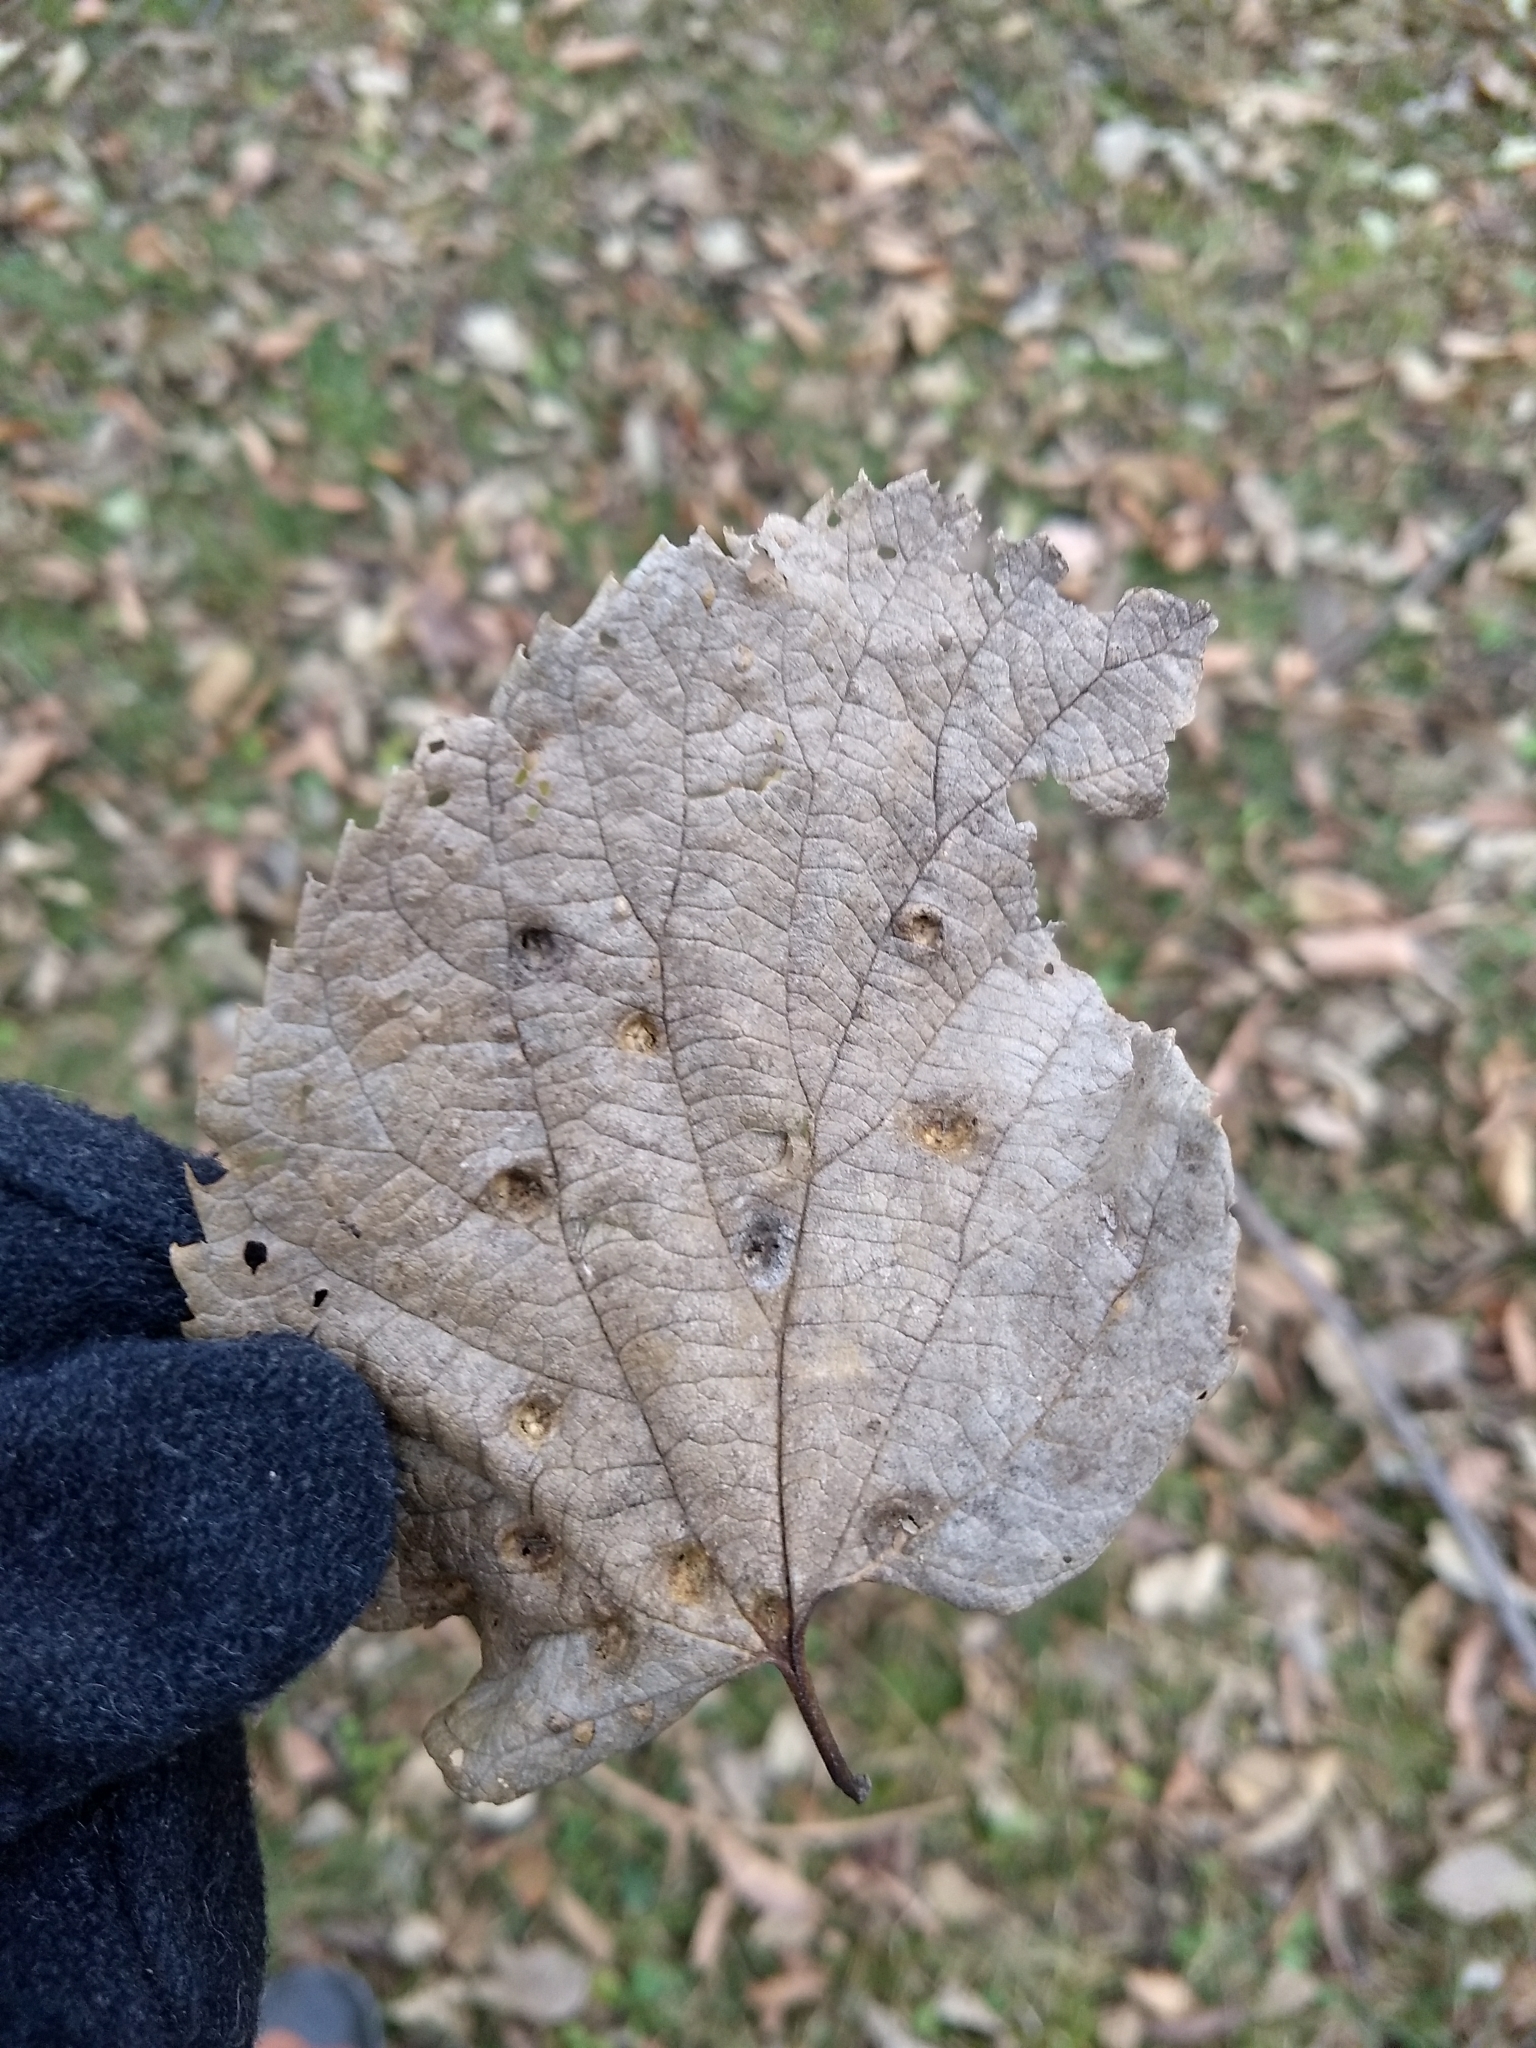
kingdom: Plantae
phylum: Tracheophyta
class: Magnoliopsida
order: Rosales
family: Cannabaceae
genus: Celtis
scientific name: Celtis occidentalis
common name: Common hackberry
